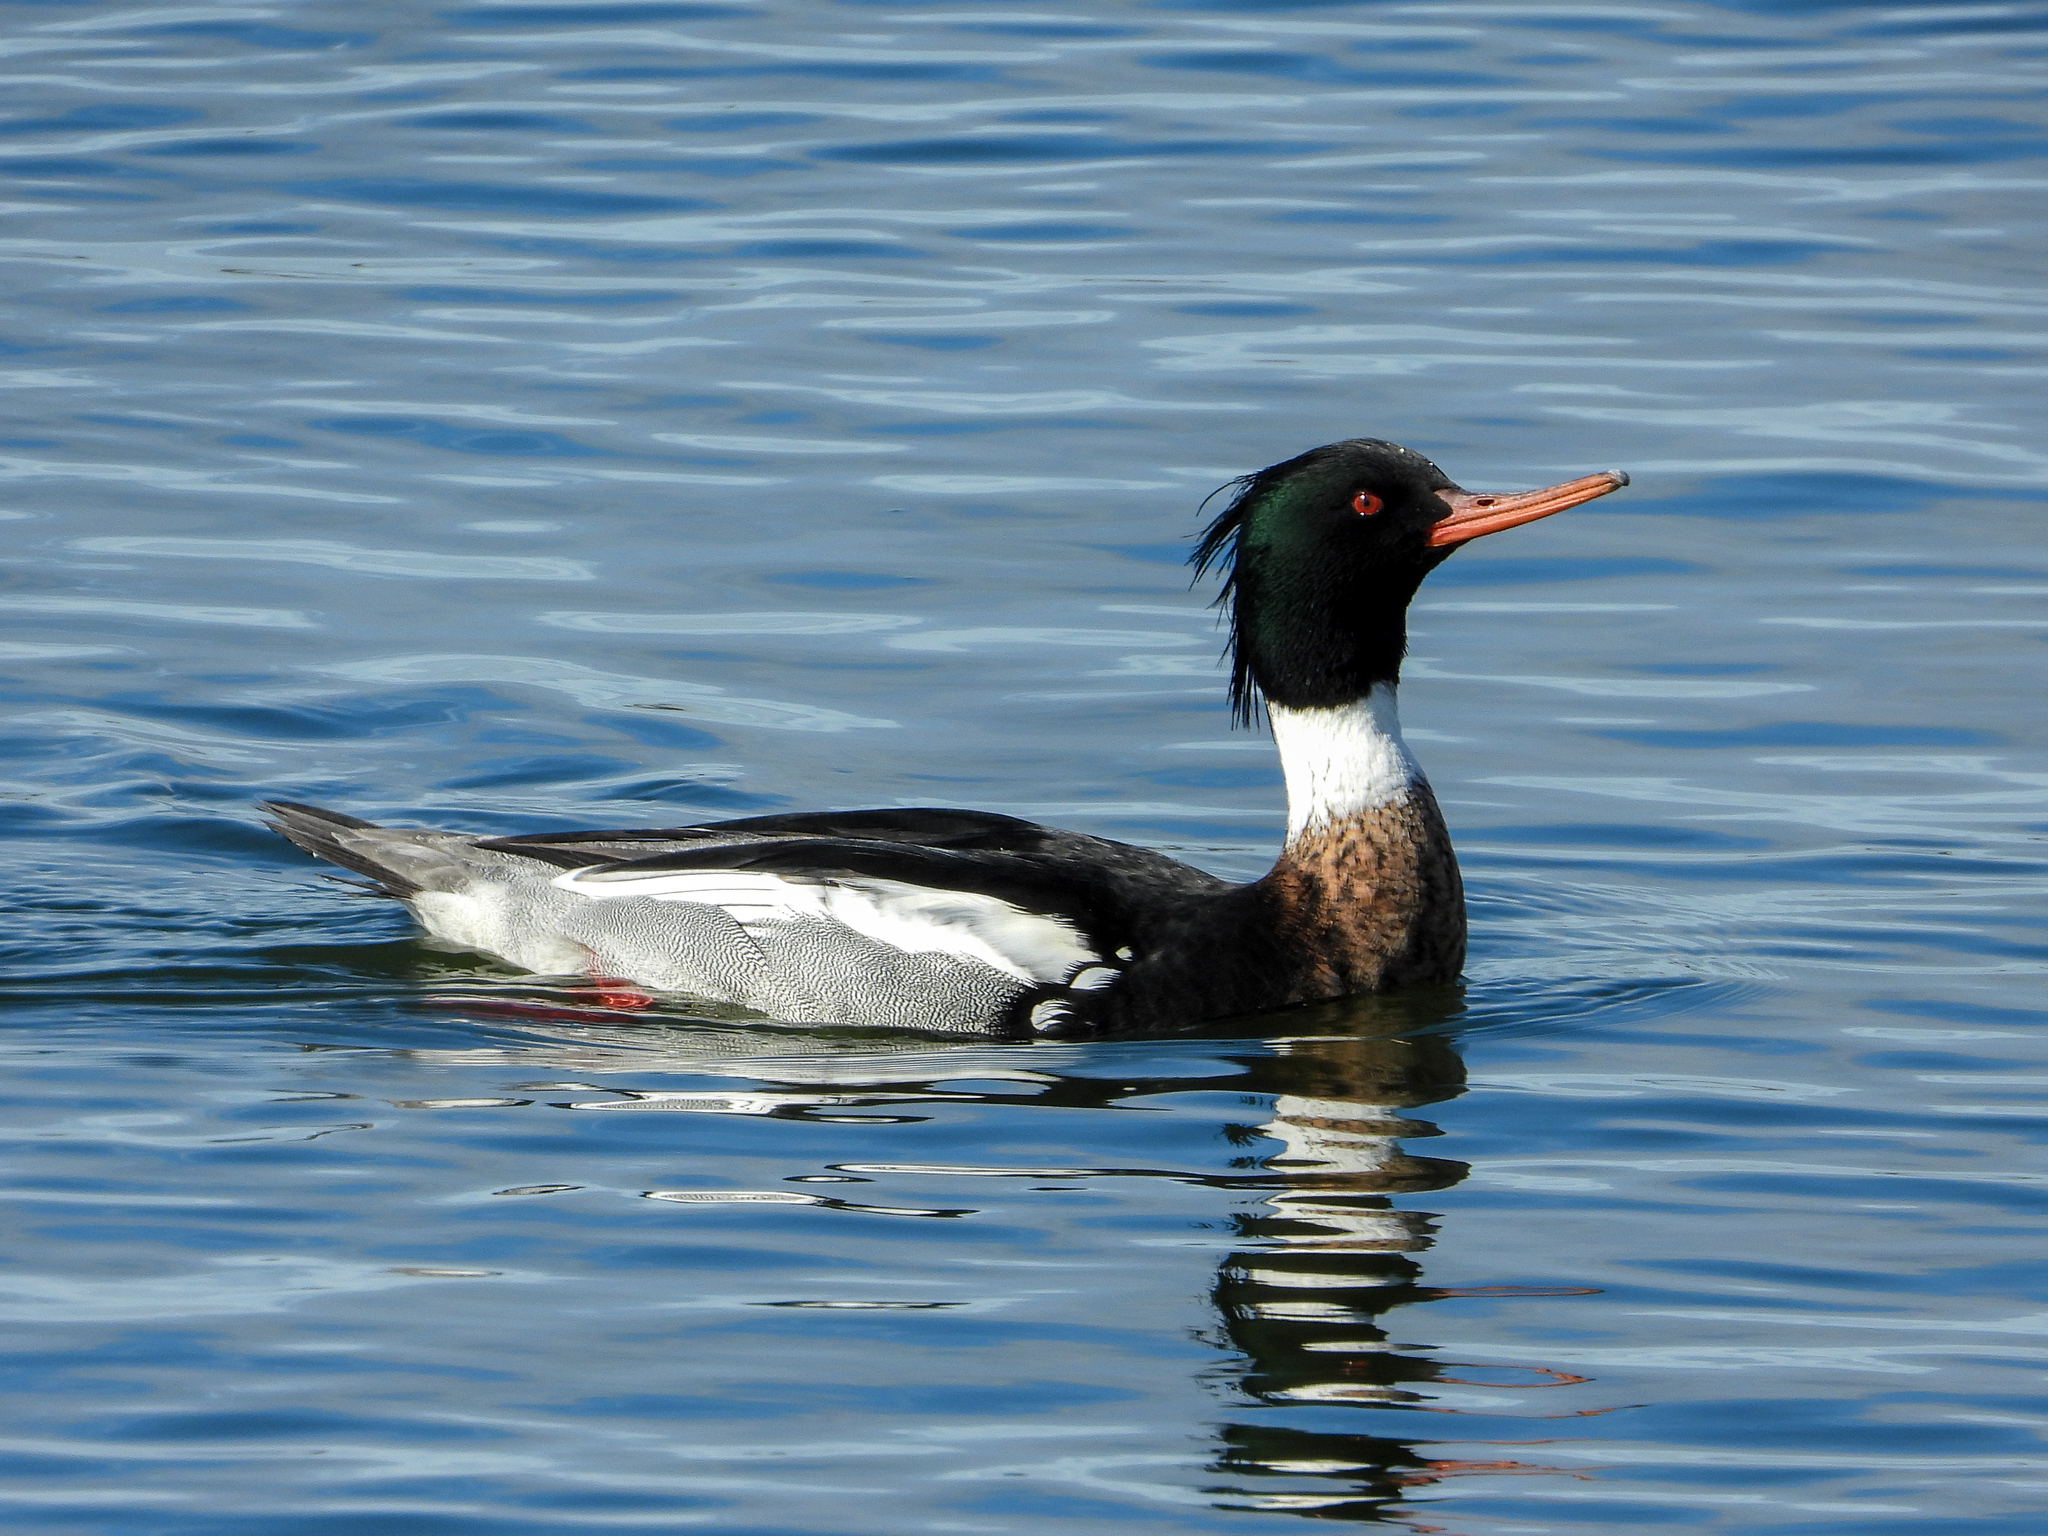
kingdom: Animalia
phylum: Chordata
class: Aves
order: Anseriformes
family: Anatidae
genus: Mergus
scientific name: Mergus serrator
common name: Red-breasted merganser
